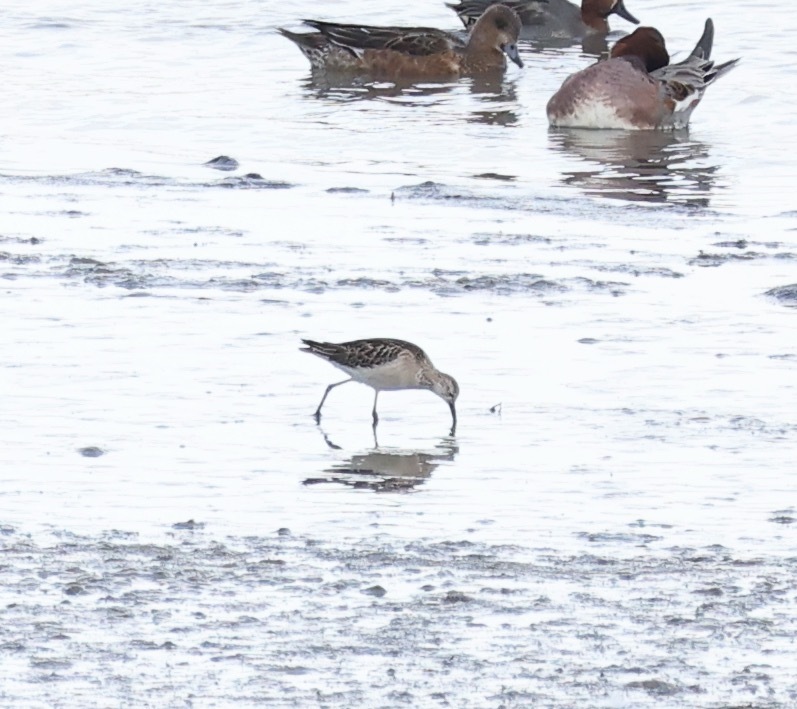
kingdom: Animalia
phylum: Chordata
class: Aves
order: Charadriiformes
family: Scolopacidae
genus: Calidris
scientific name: Calidris pugnax
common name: Ruff
